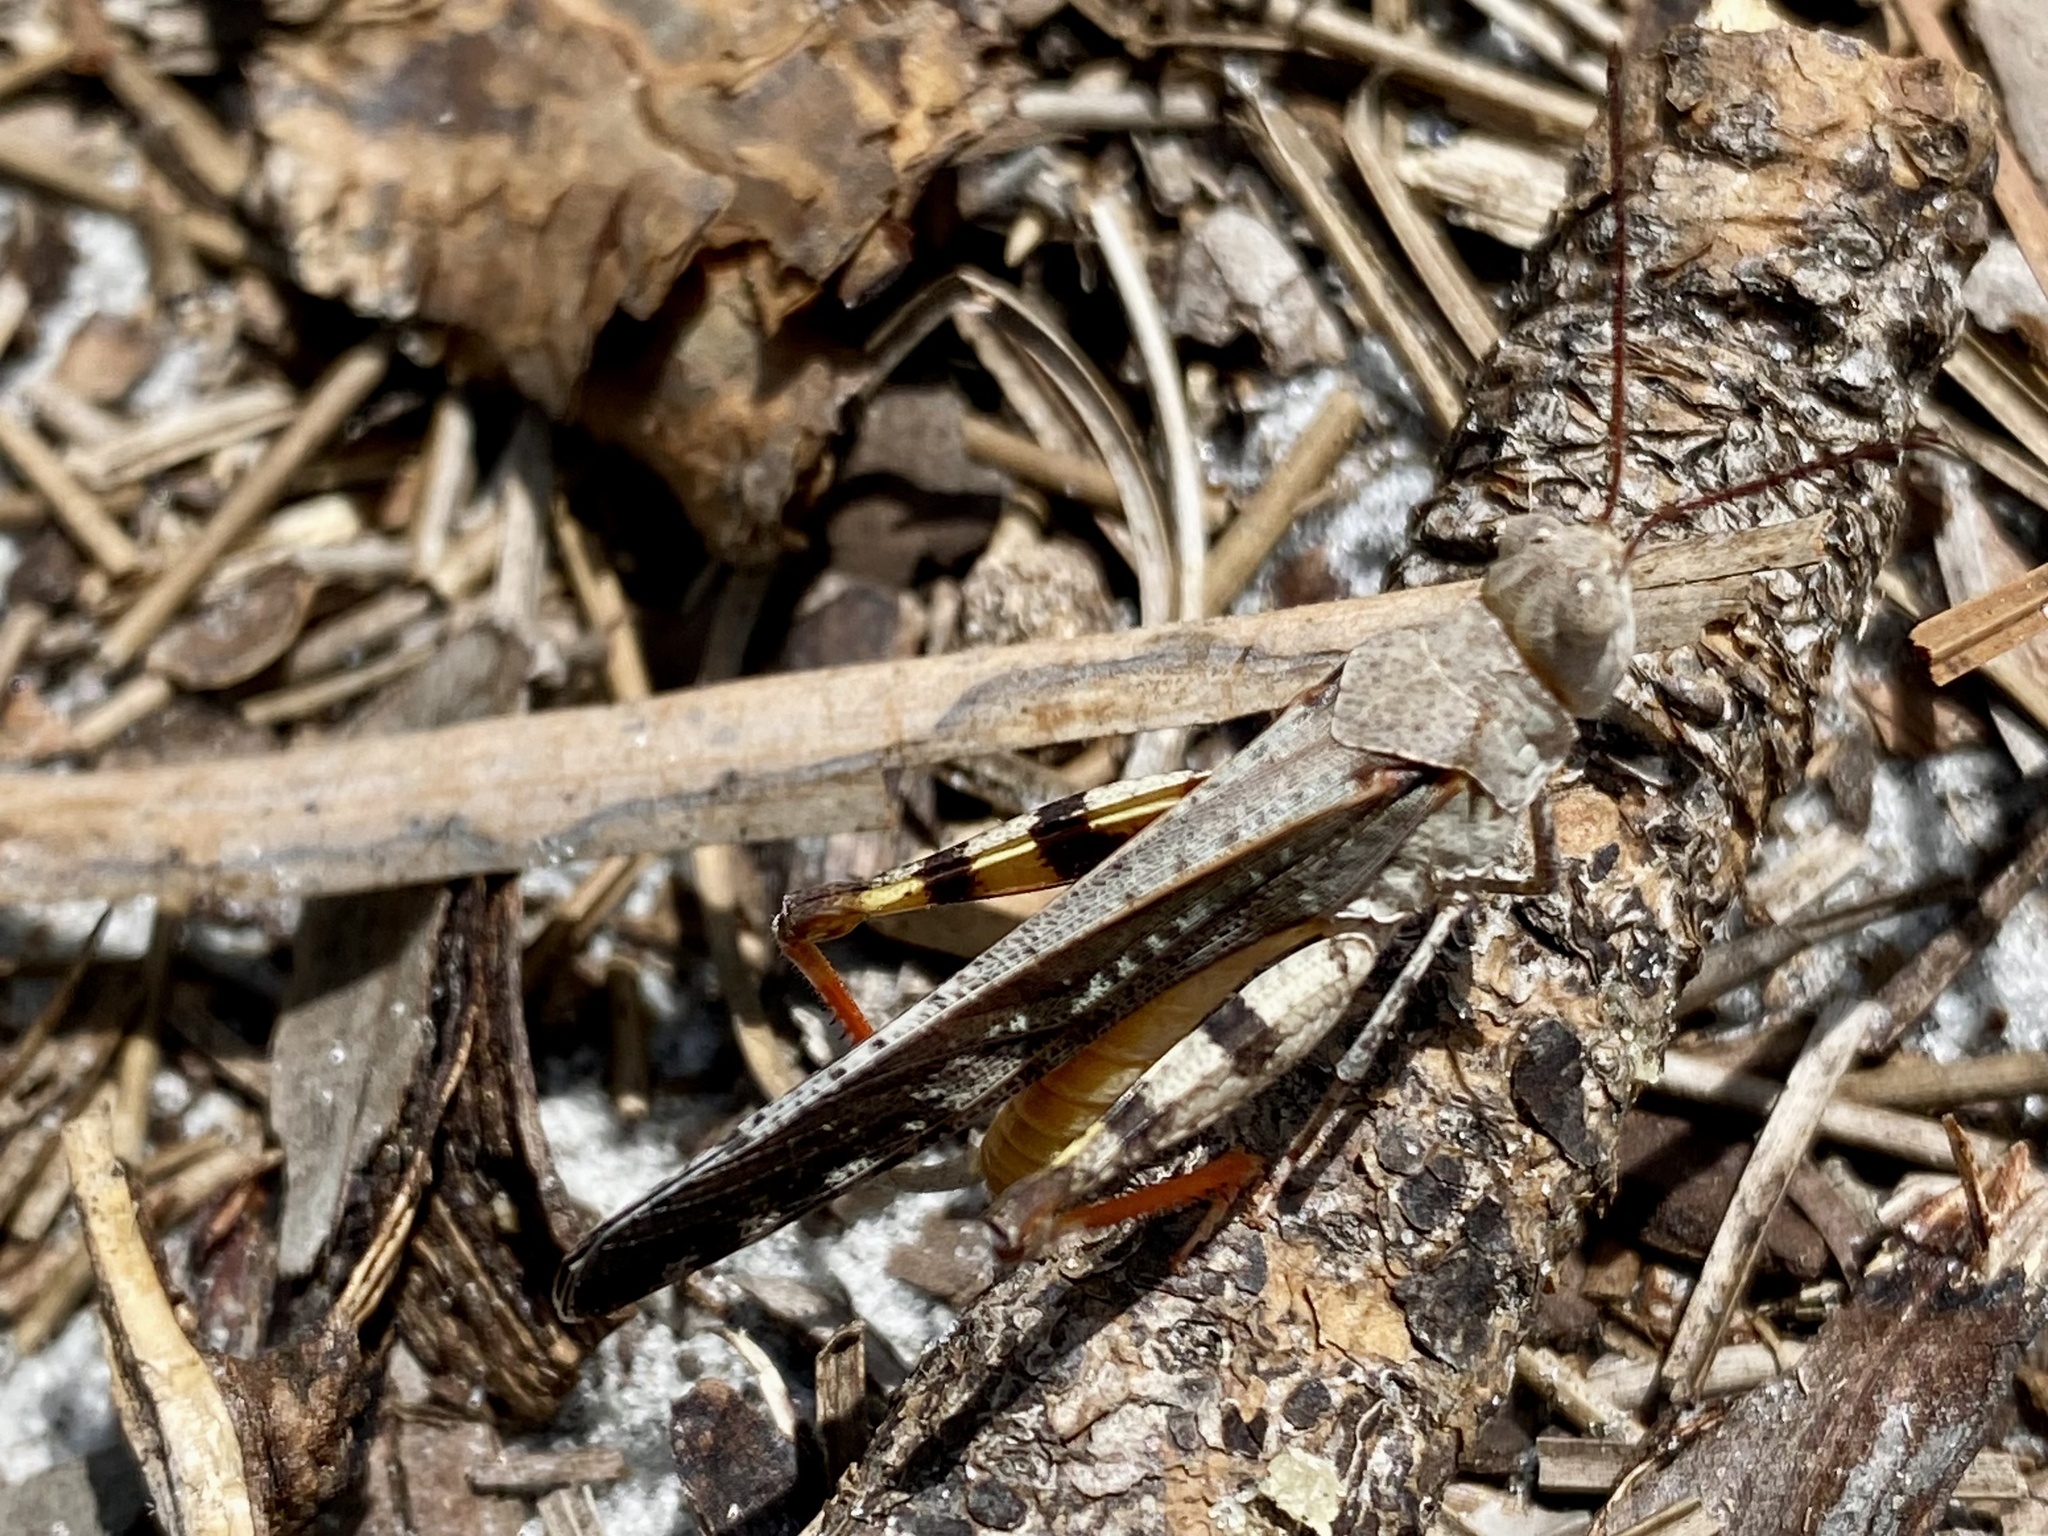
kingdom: Animalia
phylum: Arthropoda
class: Insecta
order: Orthoptera
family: Acrididae
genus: Spharagemon
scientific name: Spharagemon marmoratum
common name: Marbled grasshopper
